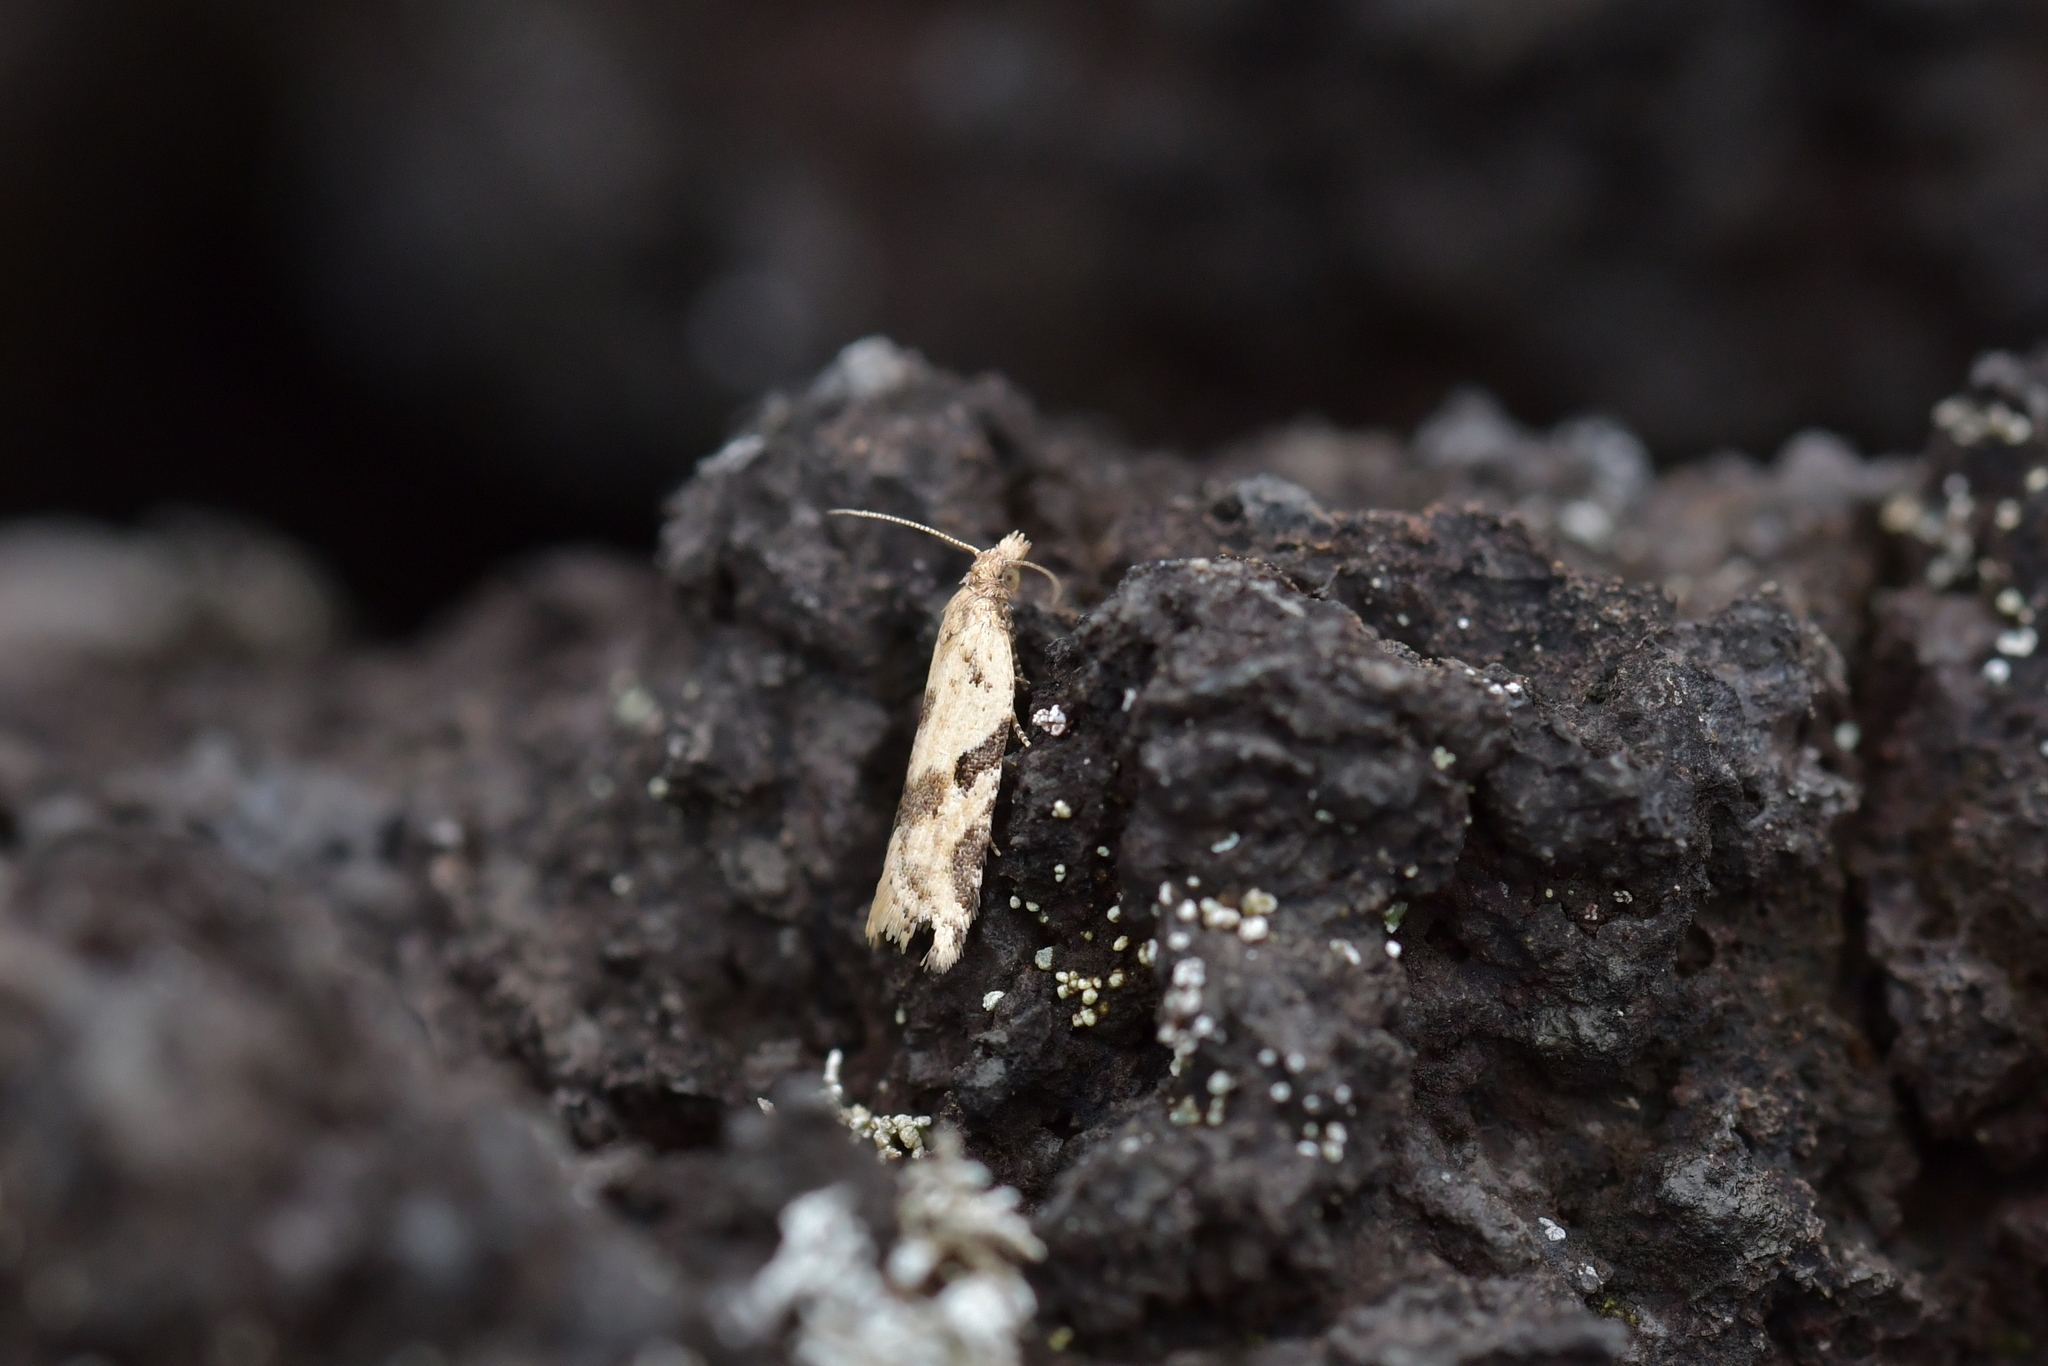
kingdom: Animalia
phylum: Arthropoda
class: Insecta
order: Lepidoptera
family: Tortricidae
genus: Capua
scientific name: Capua semiferana
